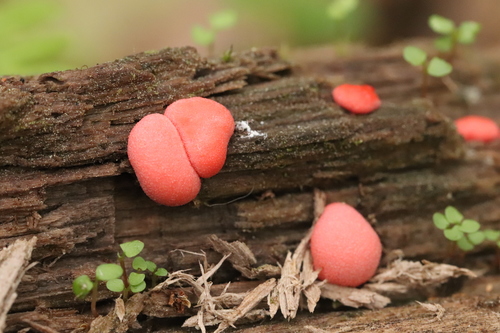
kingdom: Protozoa
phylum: Mycetozoa
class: Myxomycetes
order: Cribrariales
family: Tubiferaceae
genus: Lycogala
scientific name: Lycogala epidendrum
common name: Wolf's milk
